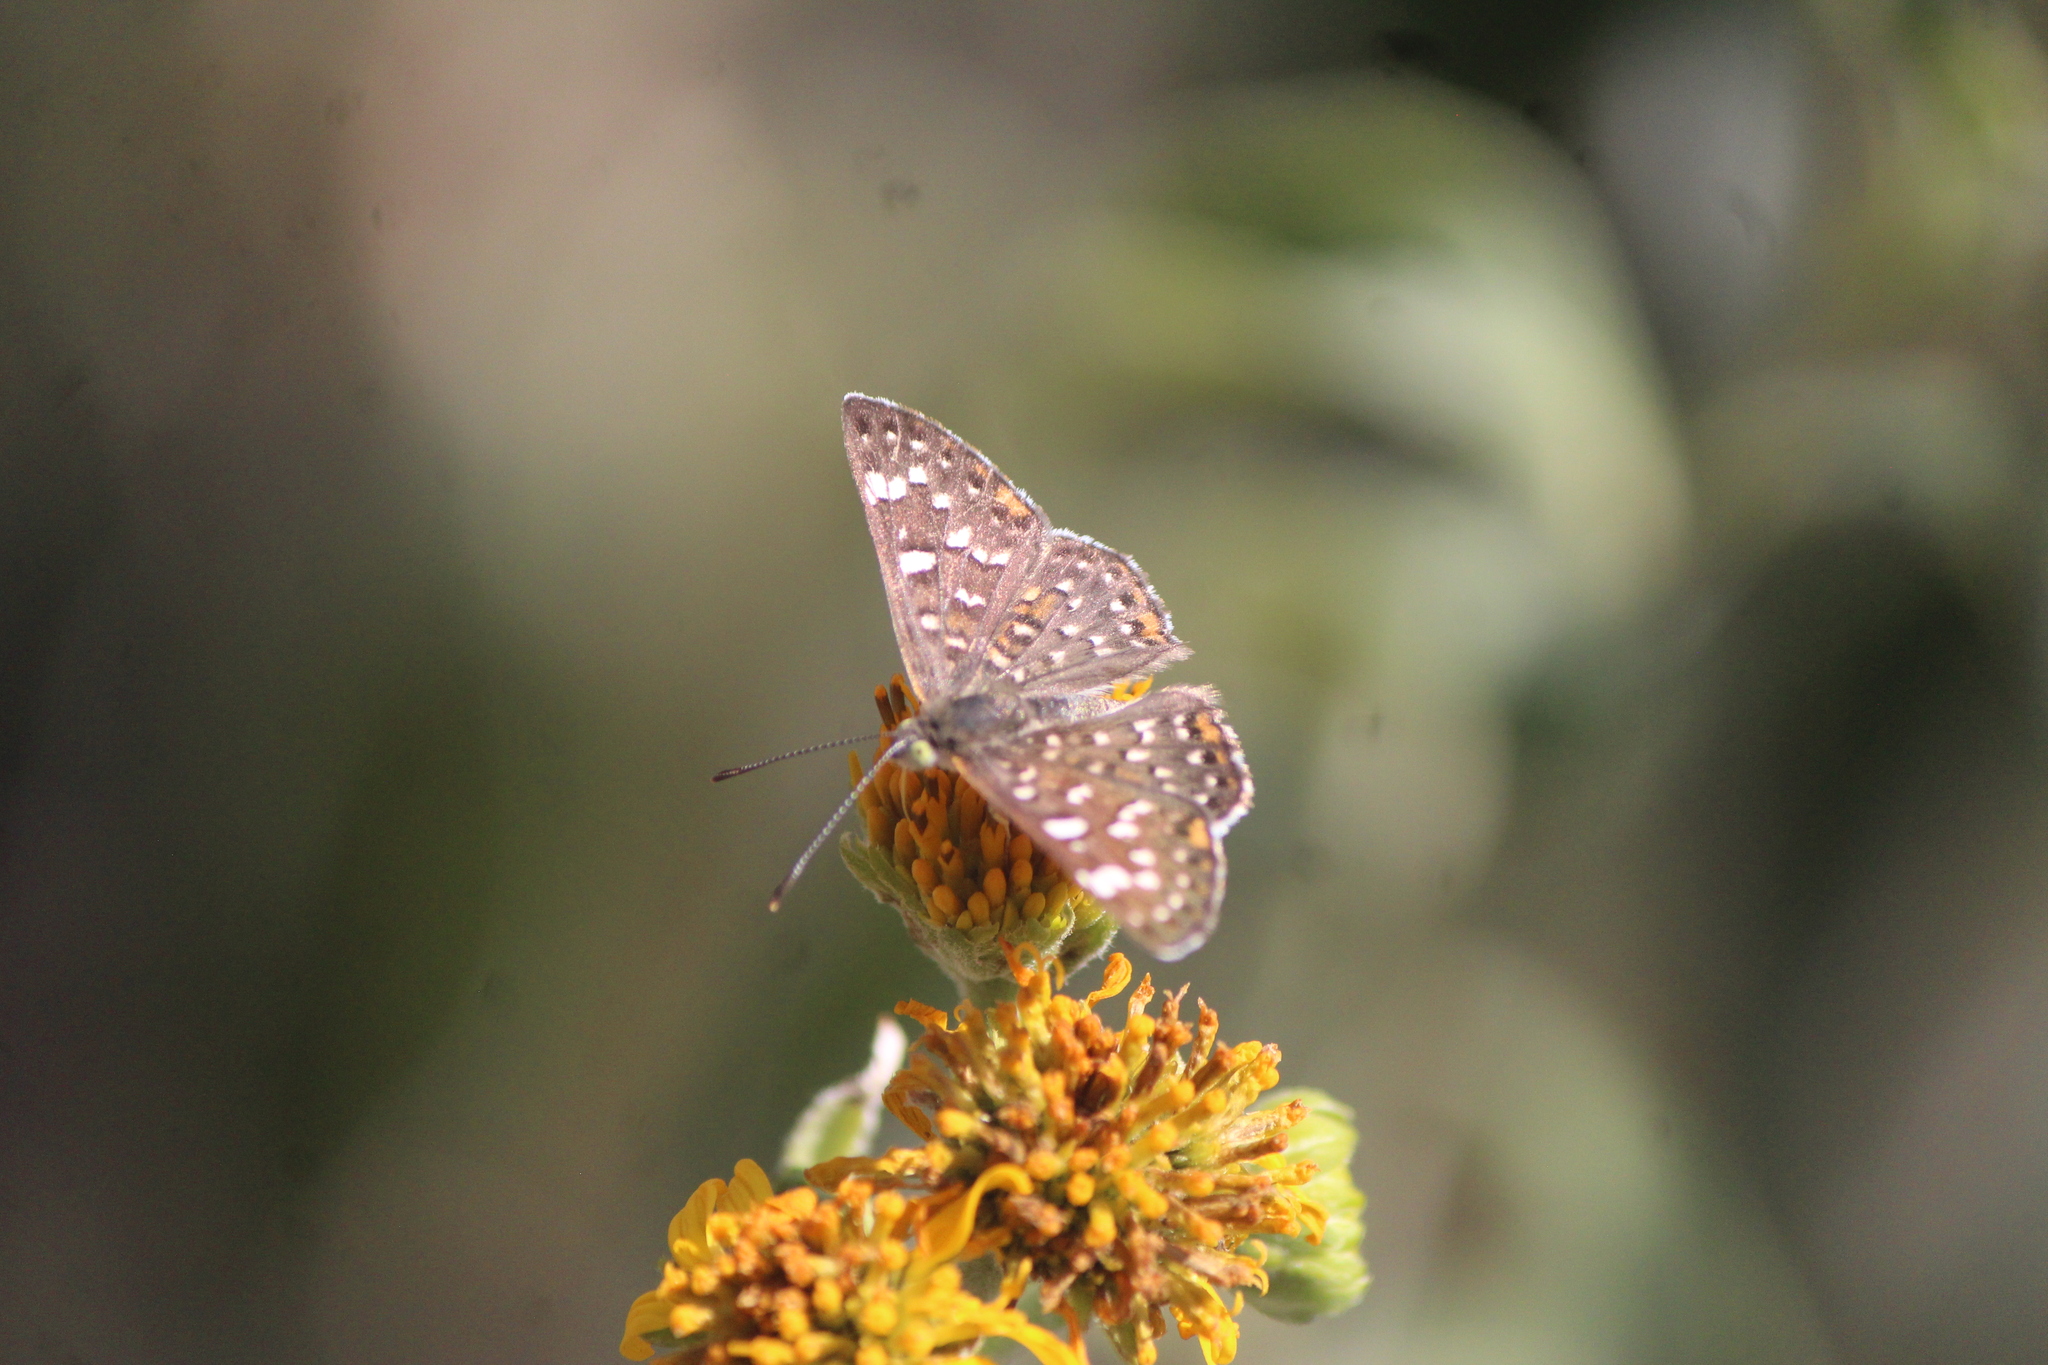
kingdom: Animalia
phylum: Arthropoda
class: Insecta
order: Lepidoptera
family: Riodinidae
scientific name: Riodinidae
